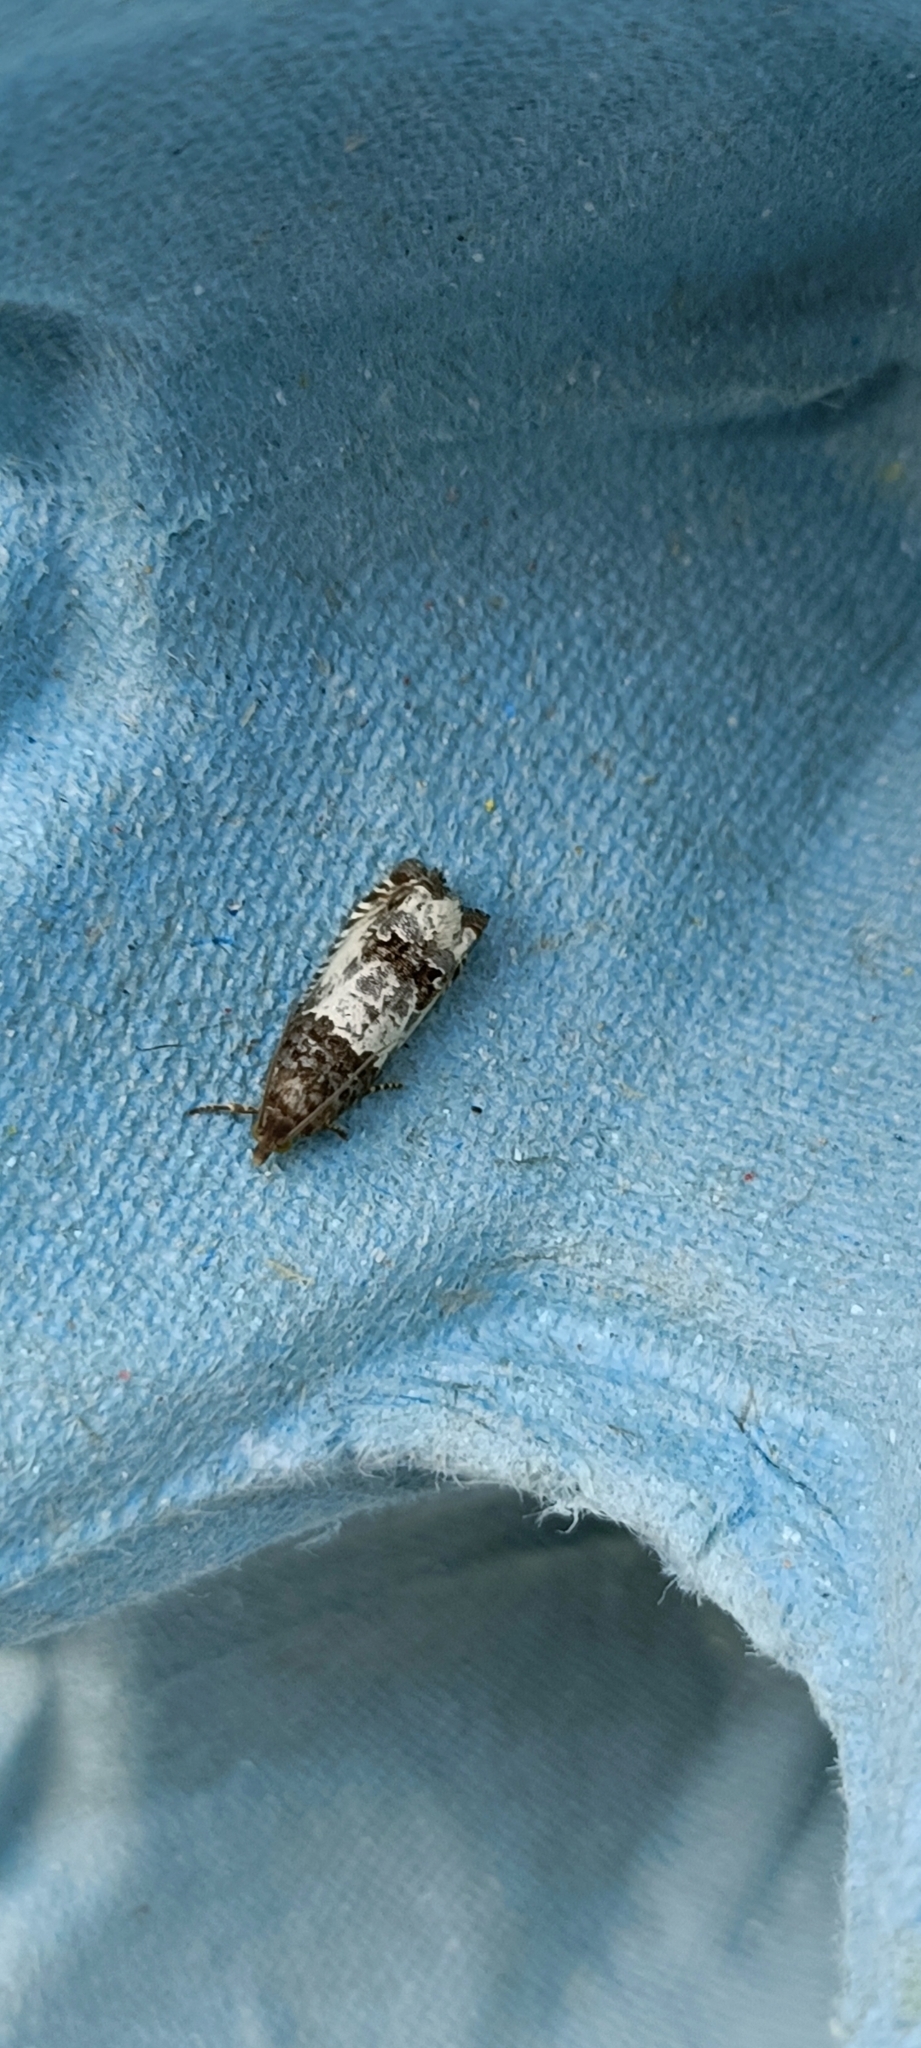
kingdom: Animalia
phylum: Arthropoda
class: Insecta
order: Lepidoptera
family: Tortricidae
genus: Notocelia
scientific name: Notocelia rosaecolana
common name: Common rose bell
